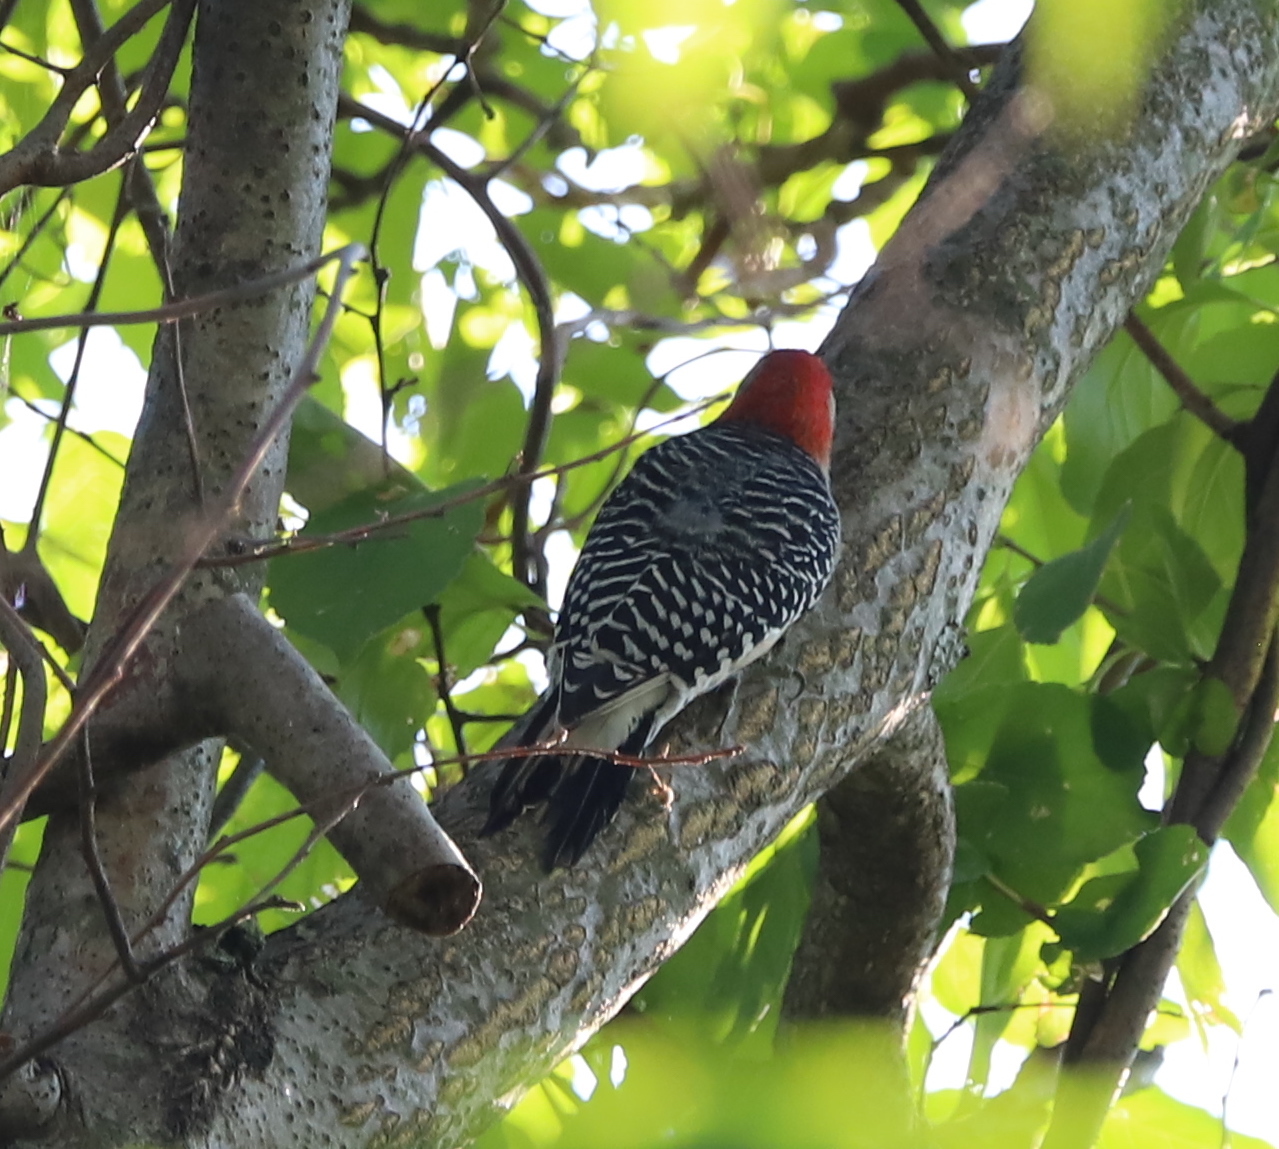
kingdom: Animalia
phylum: Chordata
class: Aves
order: Piciformes
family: Picidae
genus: Melanerpes
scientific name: Melanerpes carolinus
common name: Red-bellied woodpecker
